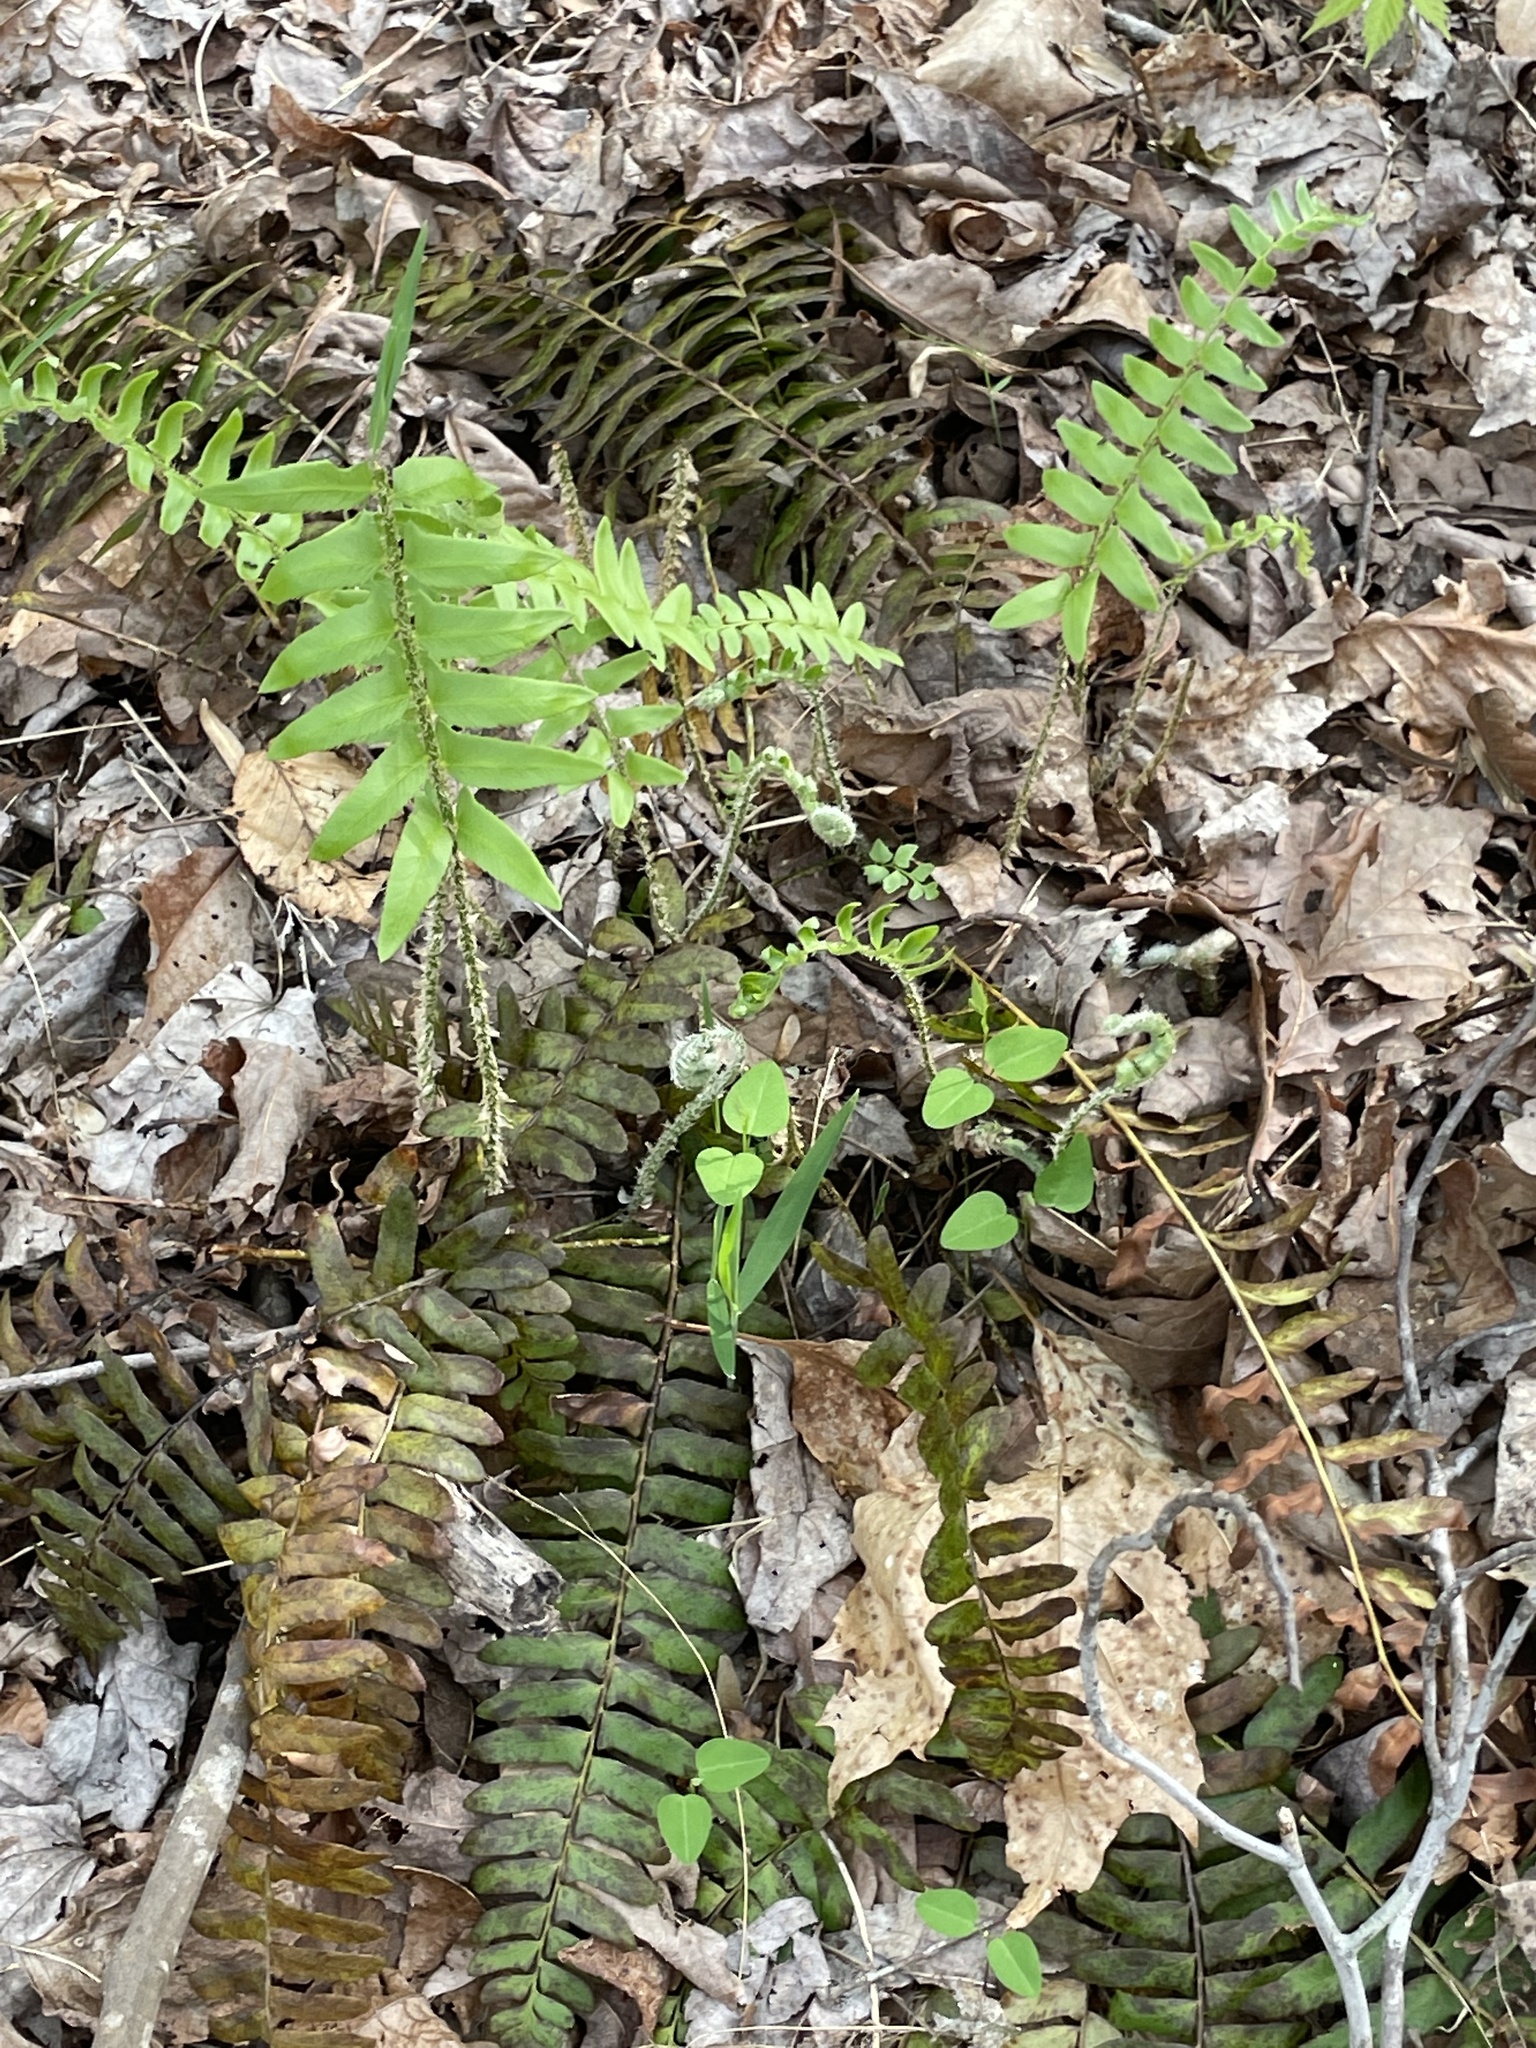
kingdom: Plantae
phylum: Tracheophyta
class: Polypodiopsida
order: Polypodiales
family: Dryopteridaceae
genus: Polystichum
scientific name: Polystichum acrostichoides
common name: Christmas fern
